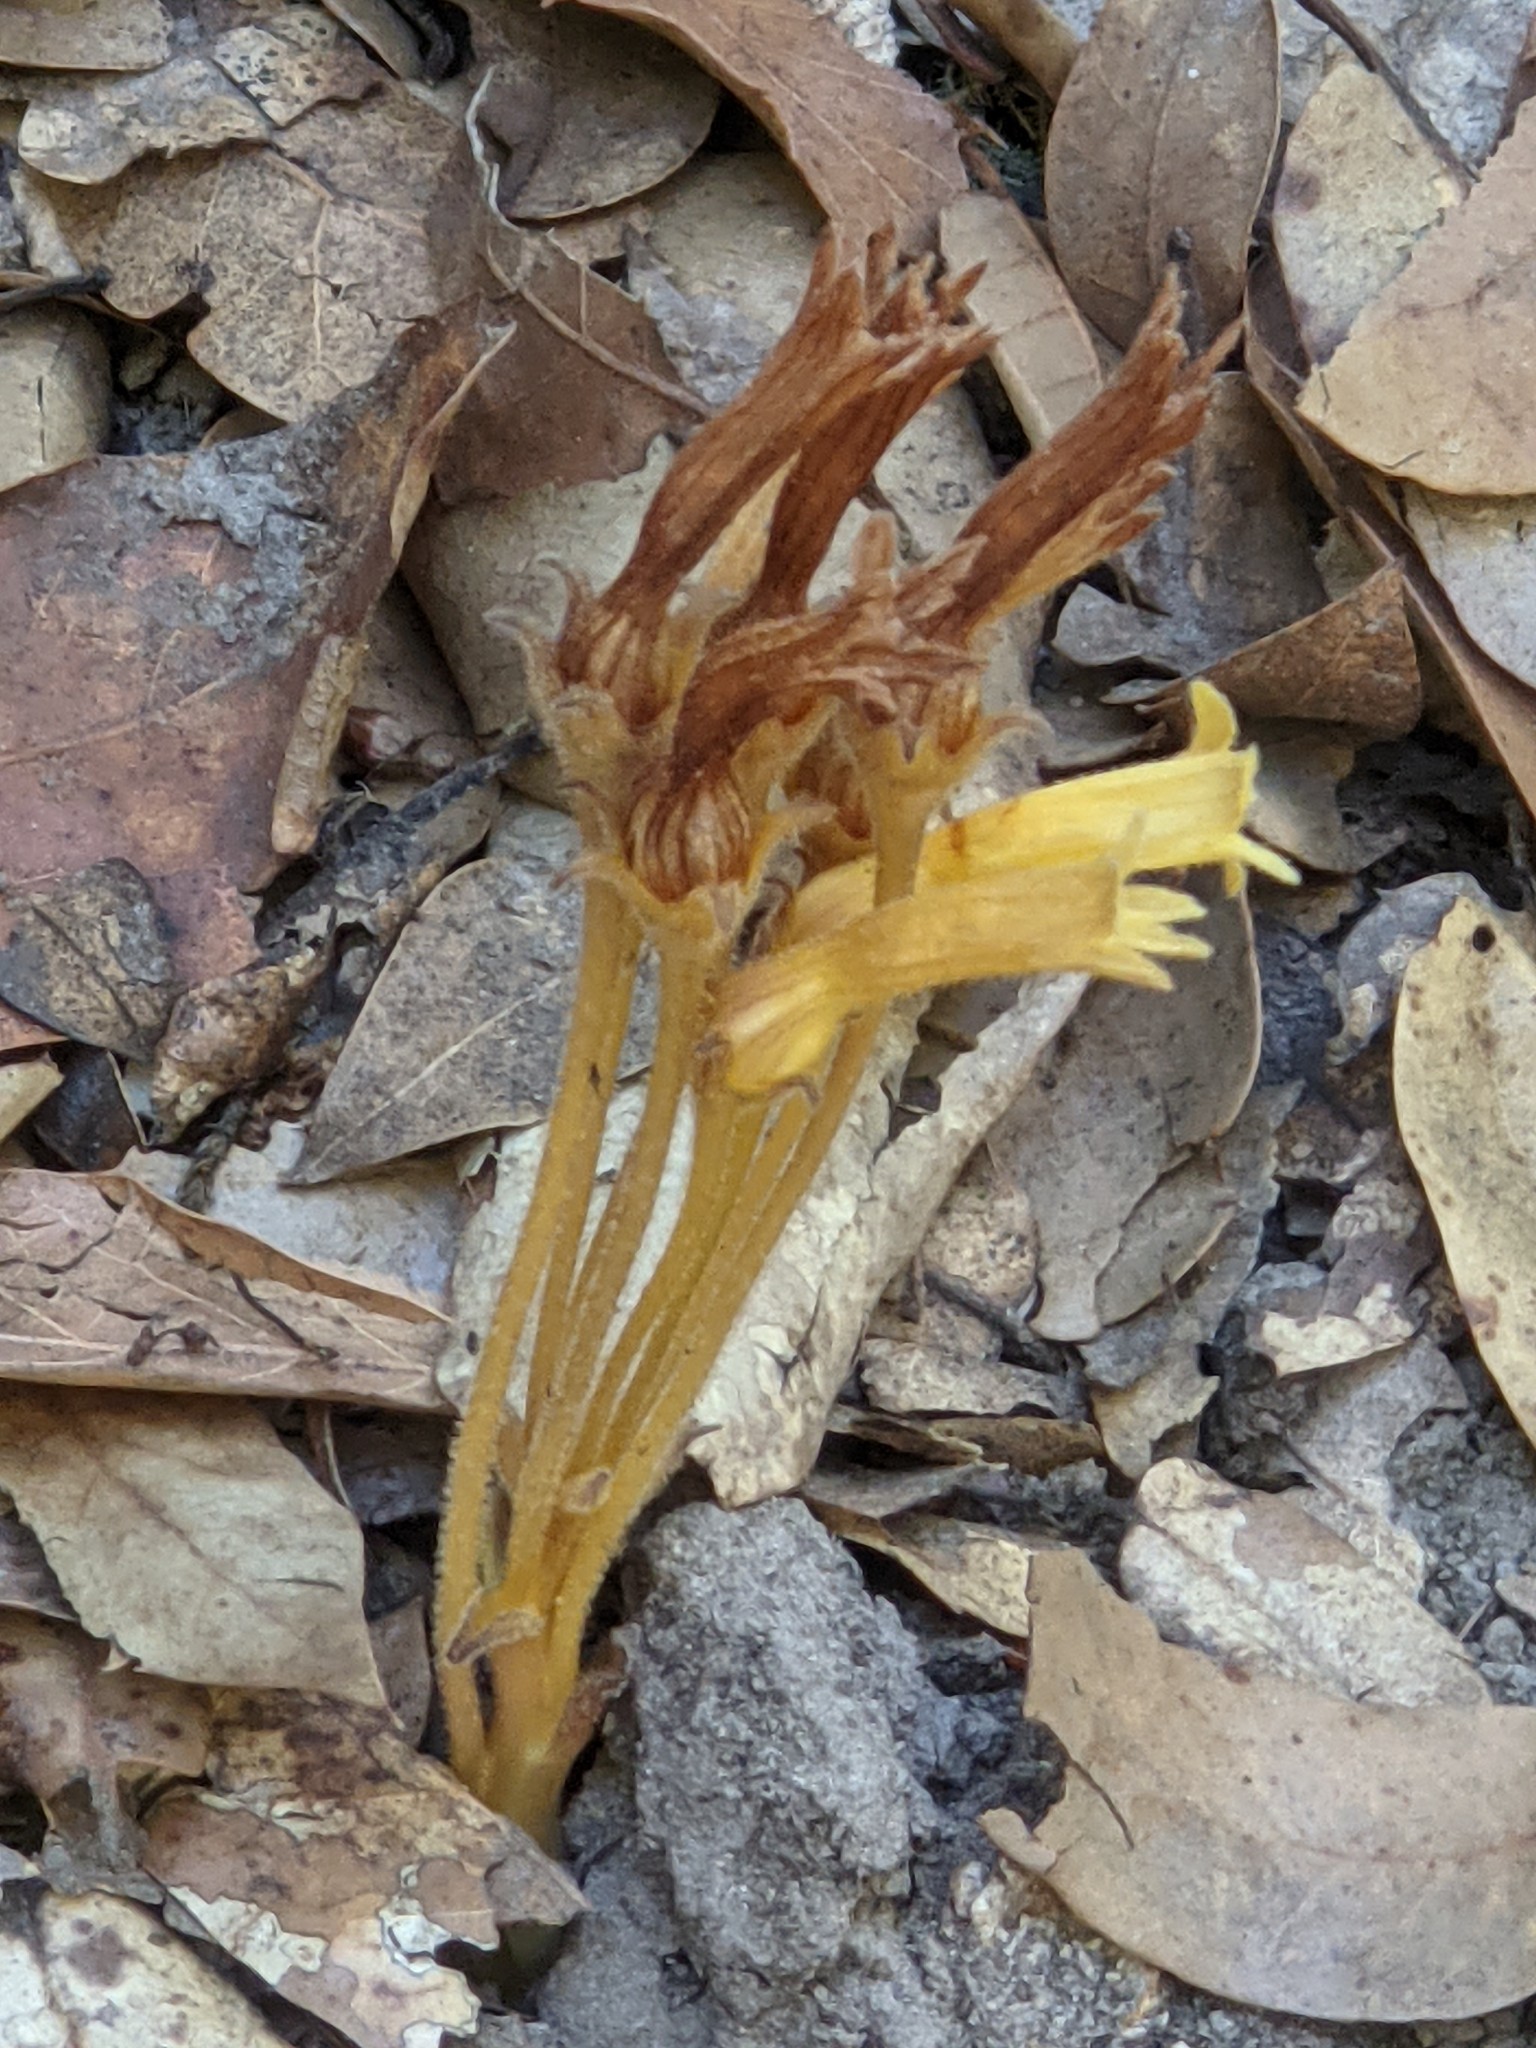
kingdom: Plantae
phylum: Tracheophyta
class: Magnoliopsida
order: Lamiales
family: Orobanchaceae
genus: Aphyllon
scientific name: Aphyllon franciscanum
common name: San francisco broomrape
